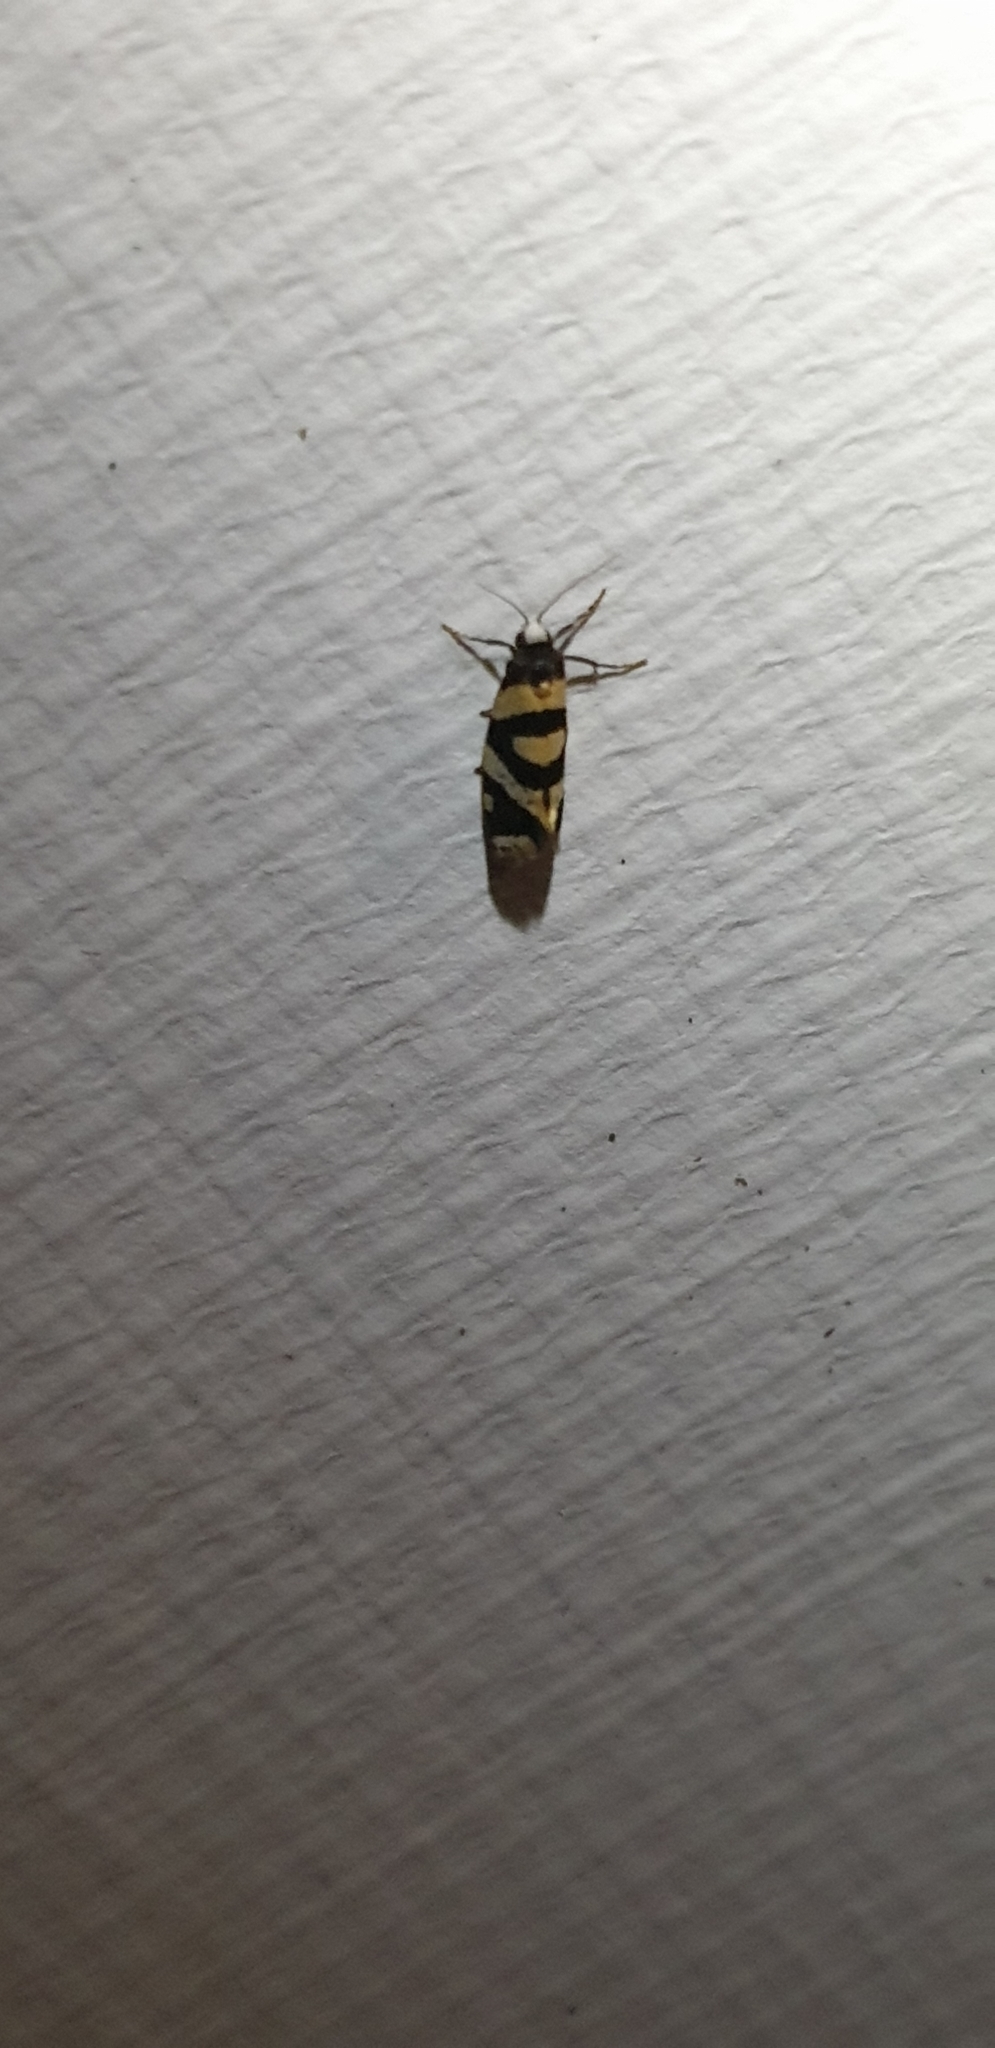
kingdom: Animalia
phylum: Arthropoda
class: Insecta
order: Lepidoptera
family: Psychidae
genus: Lepidoscia
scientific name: Lepidoscia dicranota
